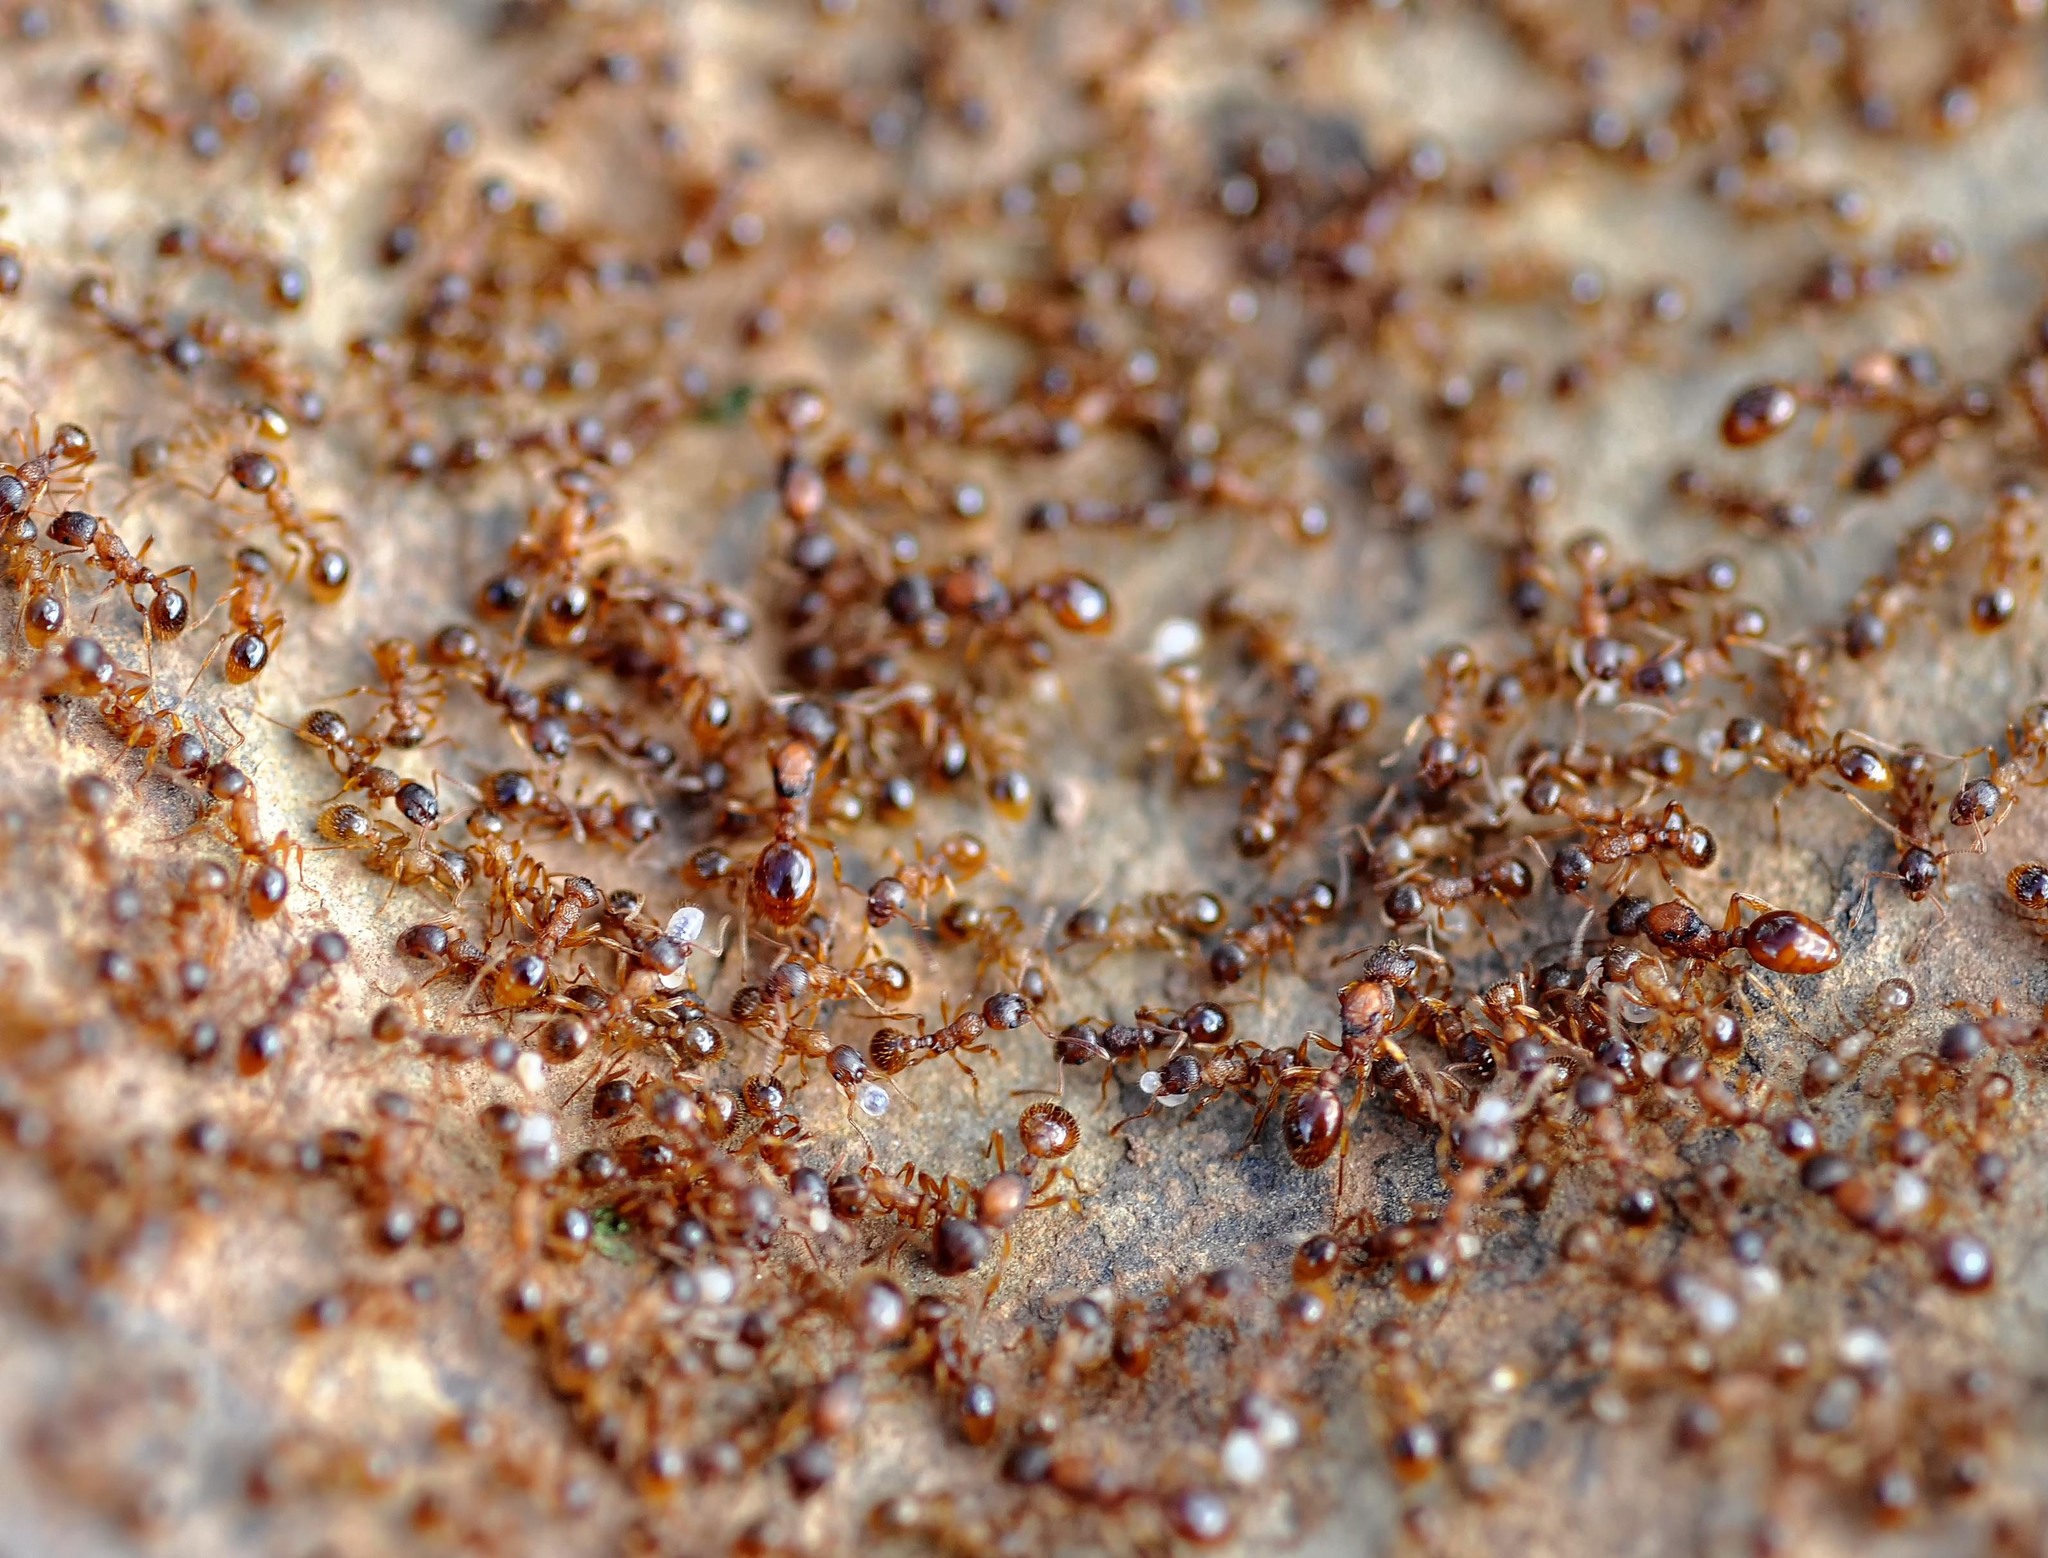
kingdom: Animalia
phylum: Arthropoda
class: Insecta
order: Hymenoptera
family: Formicidae
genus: Myrmica
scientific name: Myrmica ruginodis
